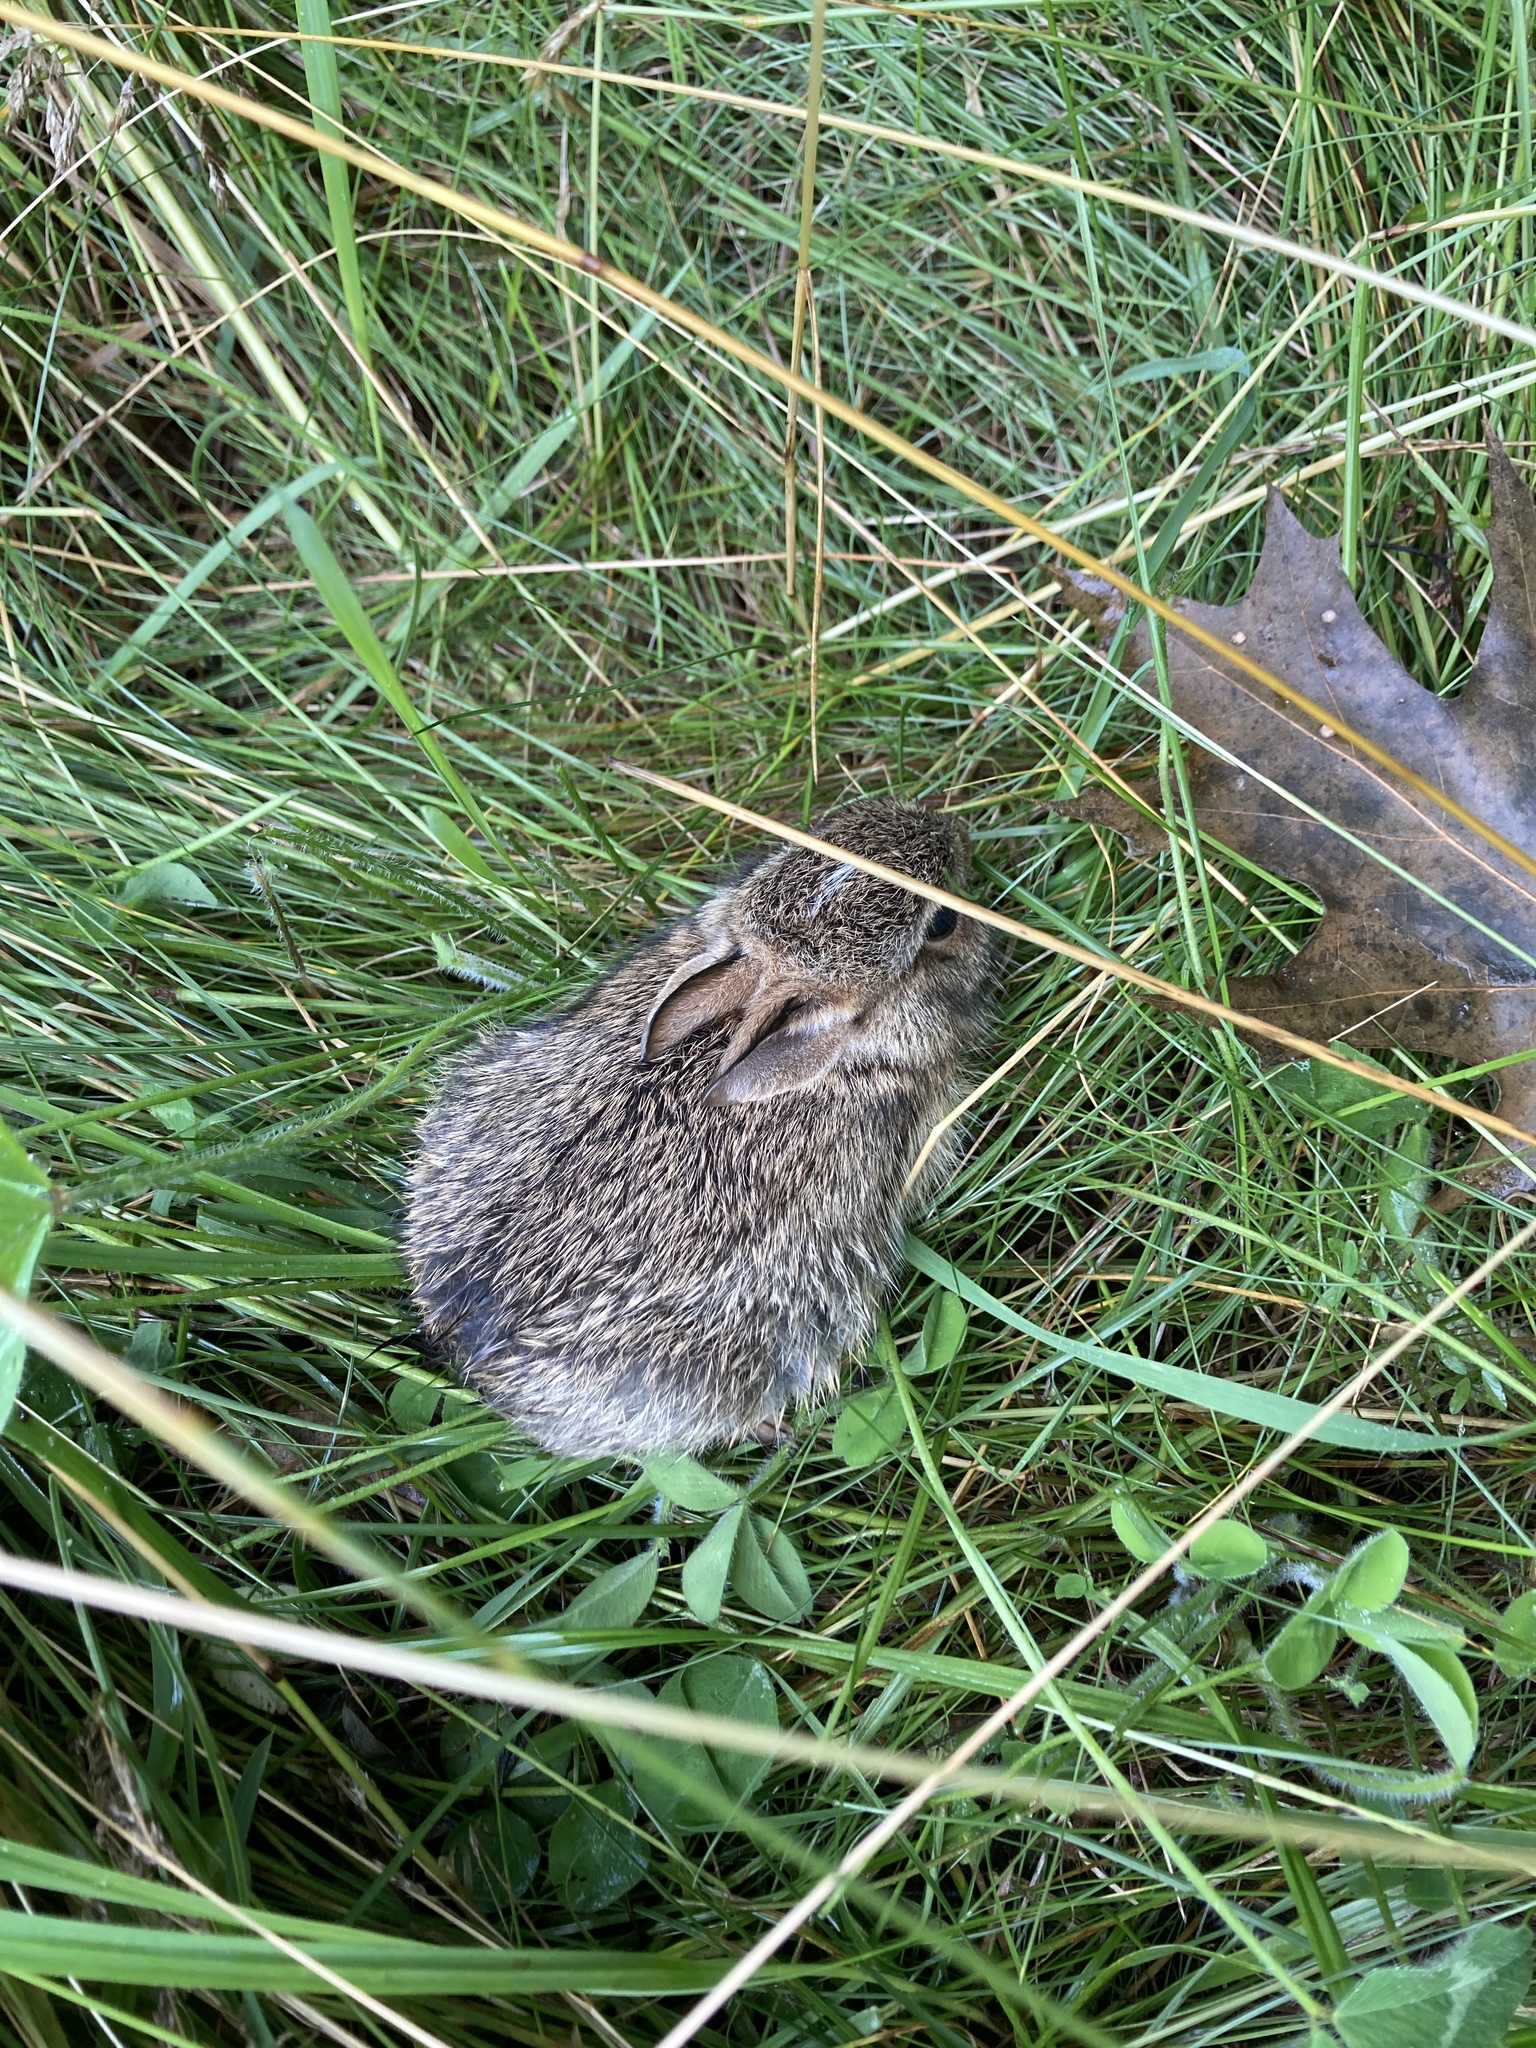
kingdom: Animalia
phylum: Chordata
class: Mammalia
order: Lagomorpha
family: Leporidae
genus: Sylvilagus
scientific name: Sylvilagus floridanus
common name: Eastern cottontail
